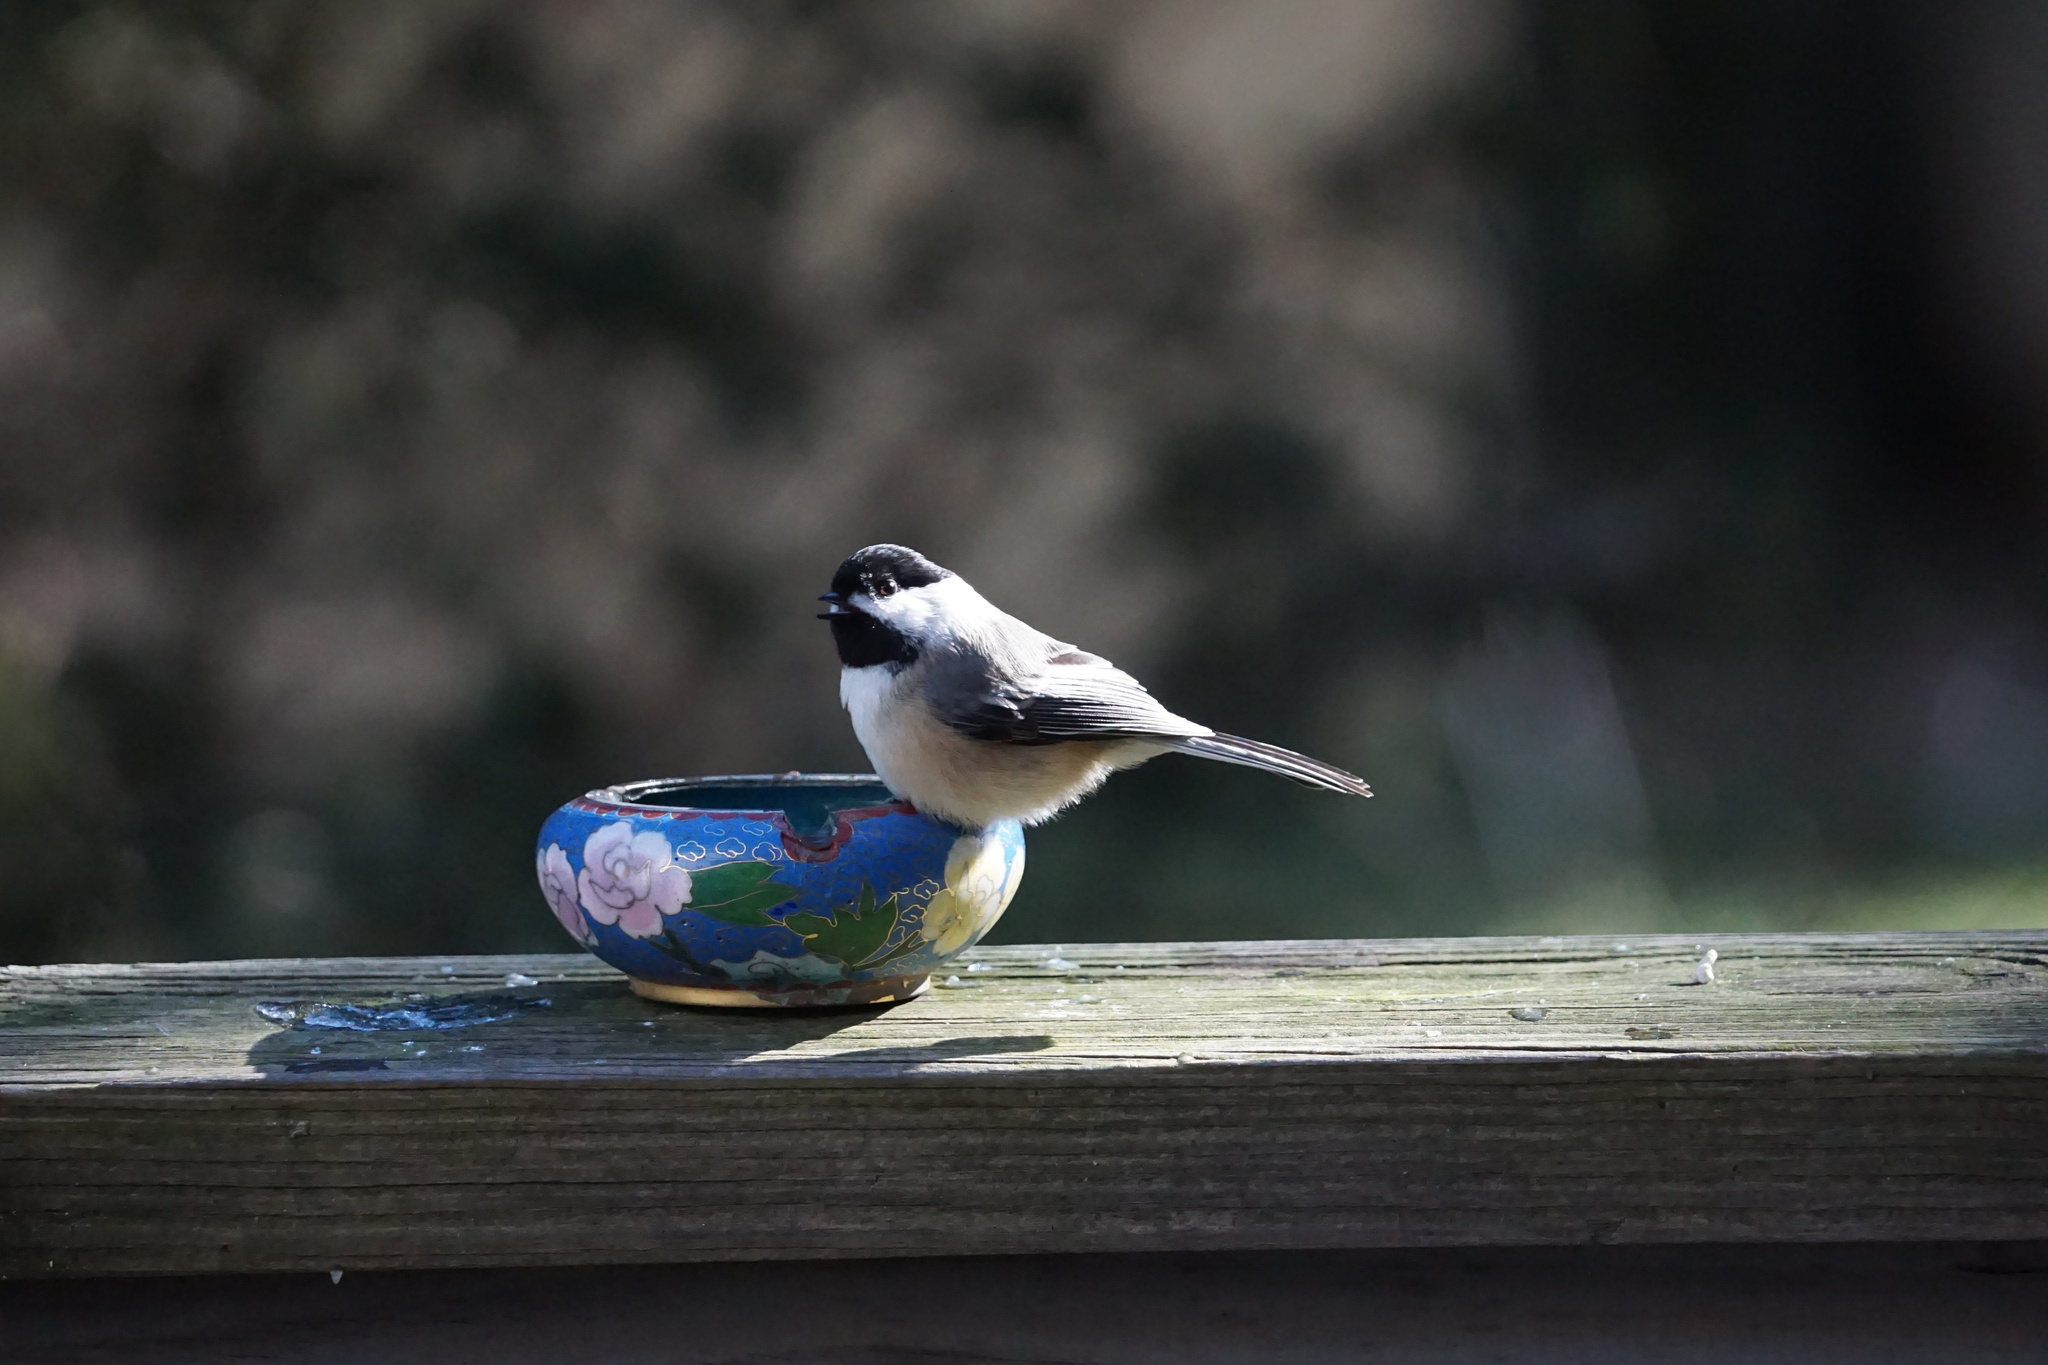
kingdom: Animalia
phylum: Chordata
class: Aves
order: Passeriformes
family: Paridae
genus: Poecile
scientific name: Poecile atricapillus
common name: Black-capped chickadee
